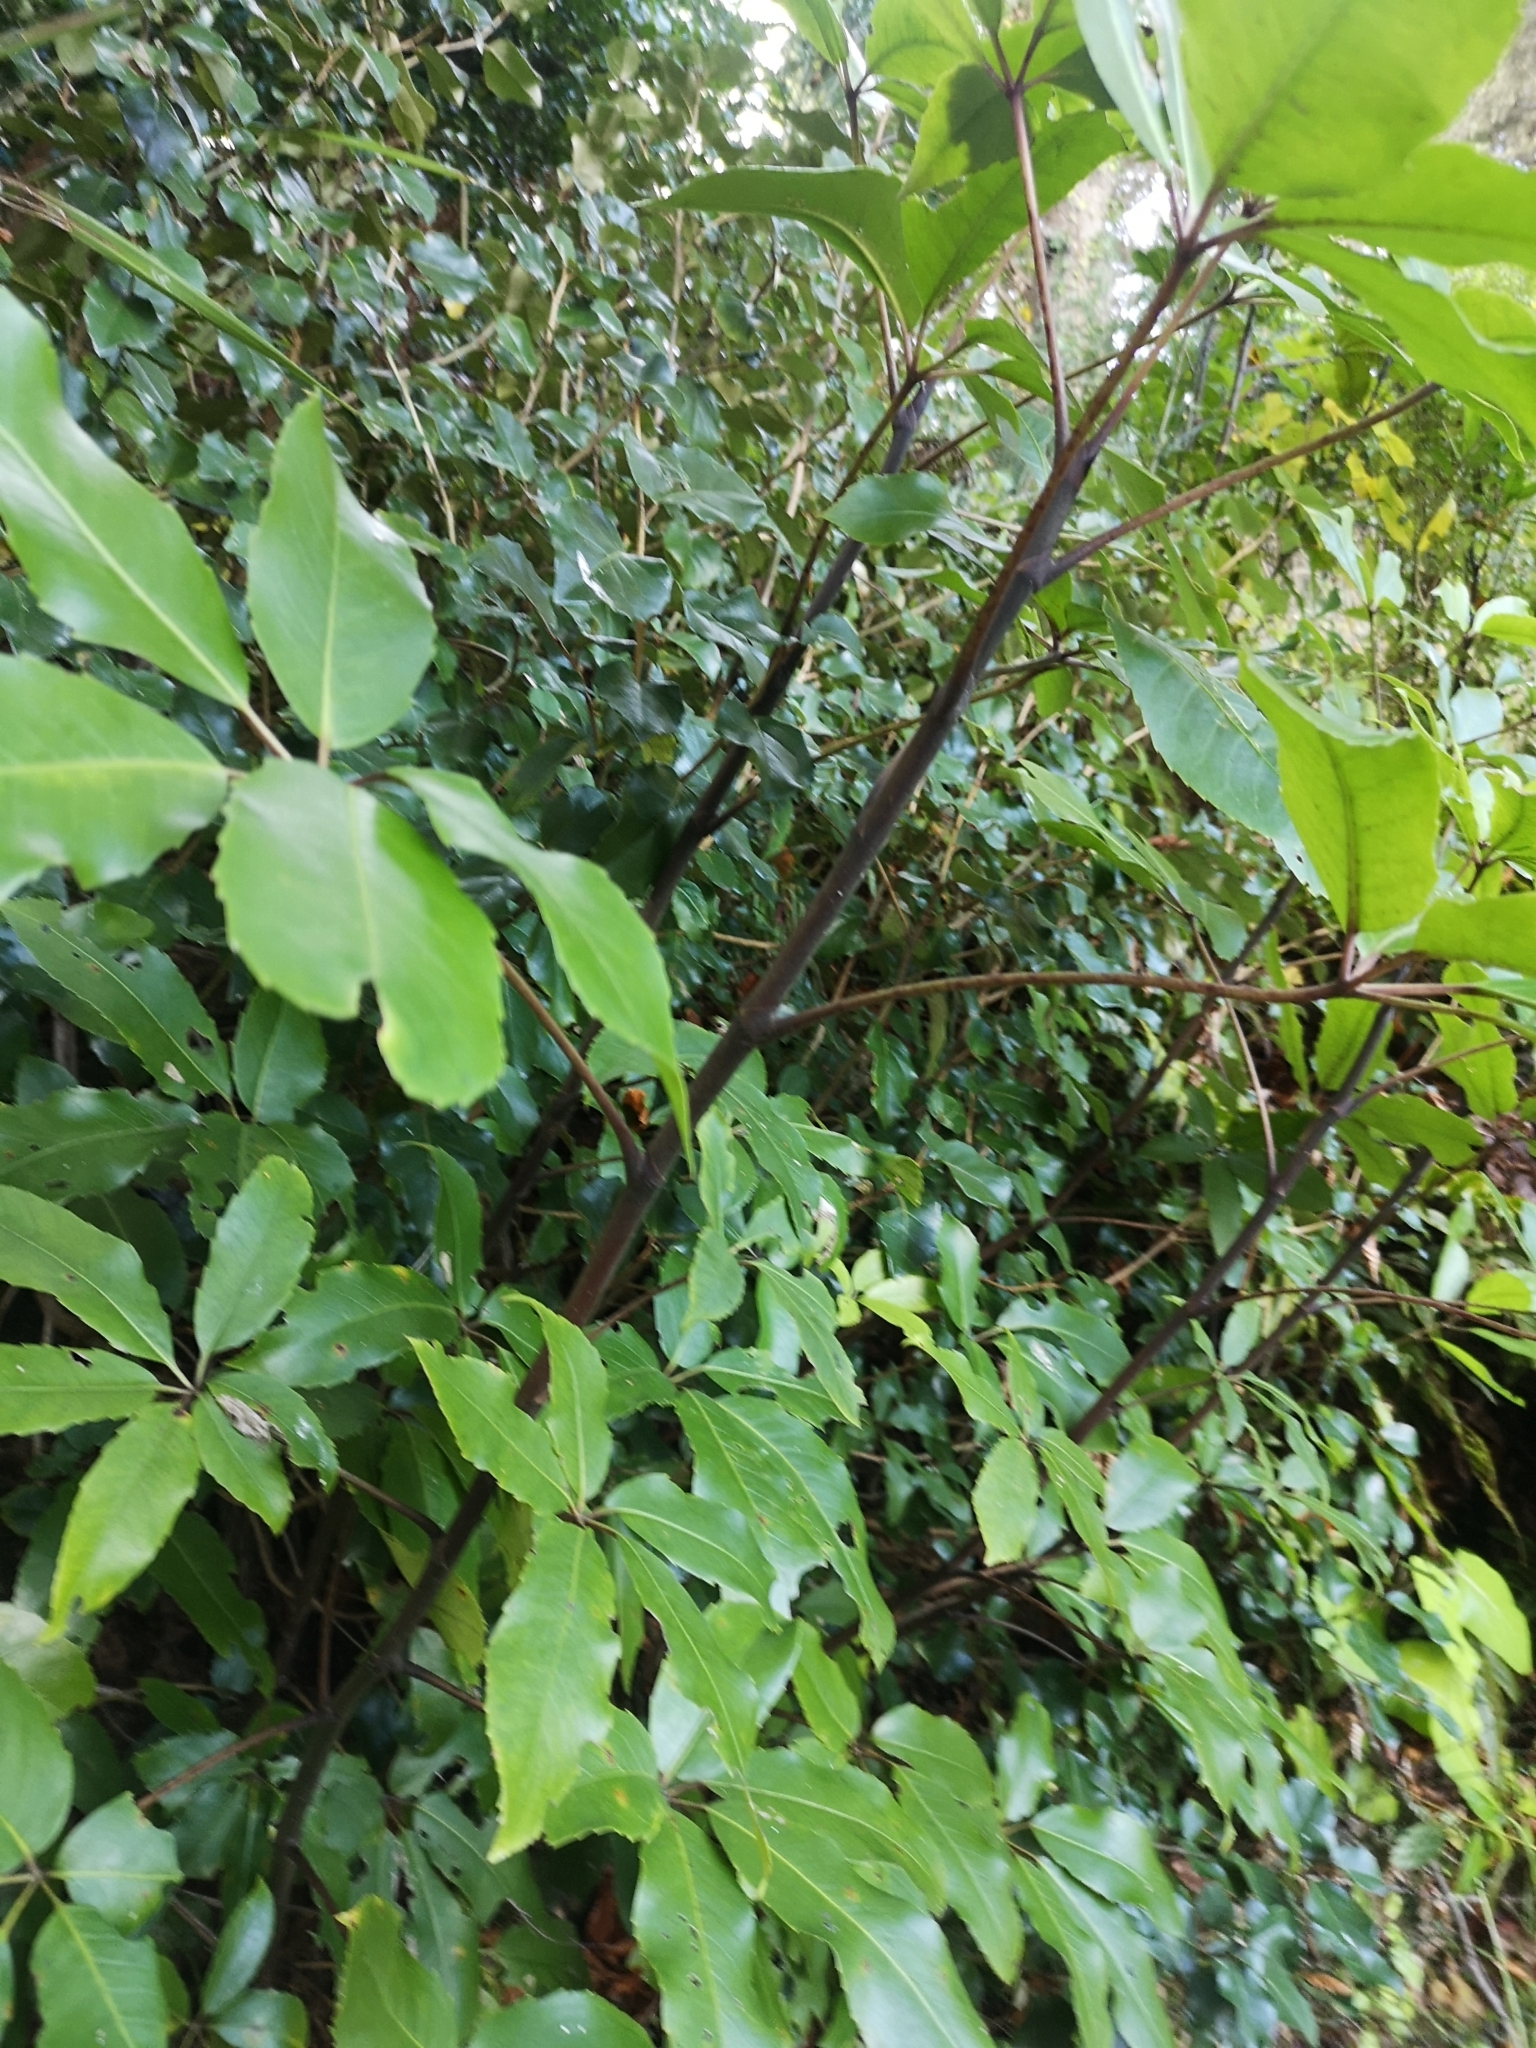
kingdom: Plantae
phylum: Tracheophyta
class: Magnoliopsida
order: Apiales
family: Araliaceae
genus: Neopanax
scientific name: Neopanax arboreus
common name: Five-fingers
